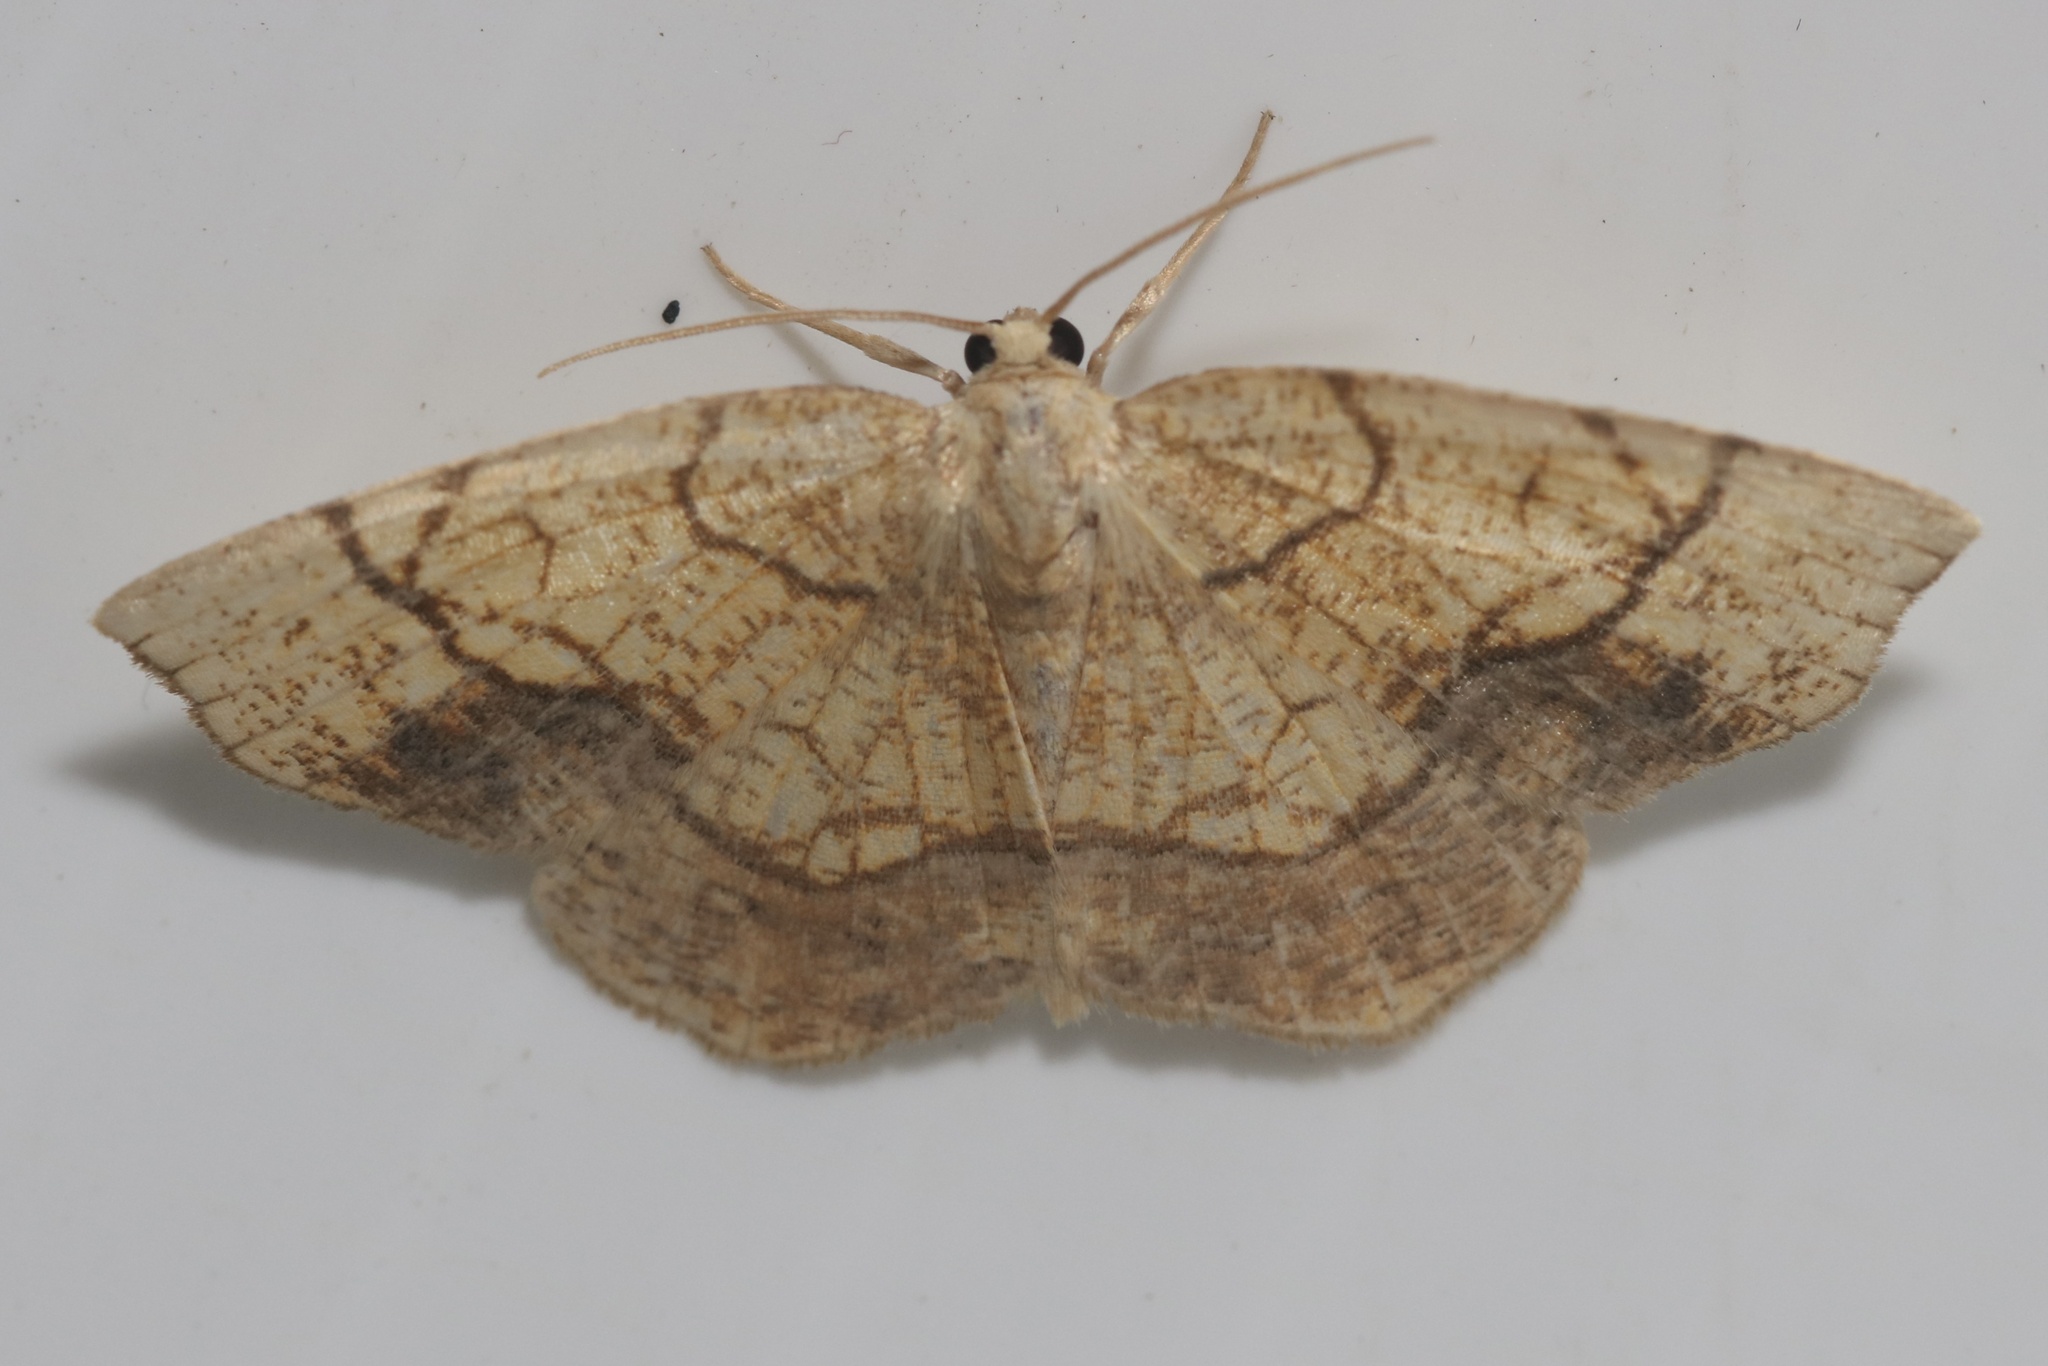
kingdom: Animalia
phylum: Arthropoda
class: Insecta
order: Lepidoptera
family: Geometridae
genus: Nematocampa
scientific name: Nematocampa resistaria
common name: Horned spanworm moth
